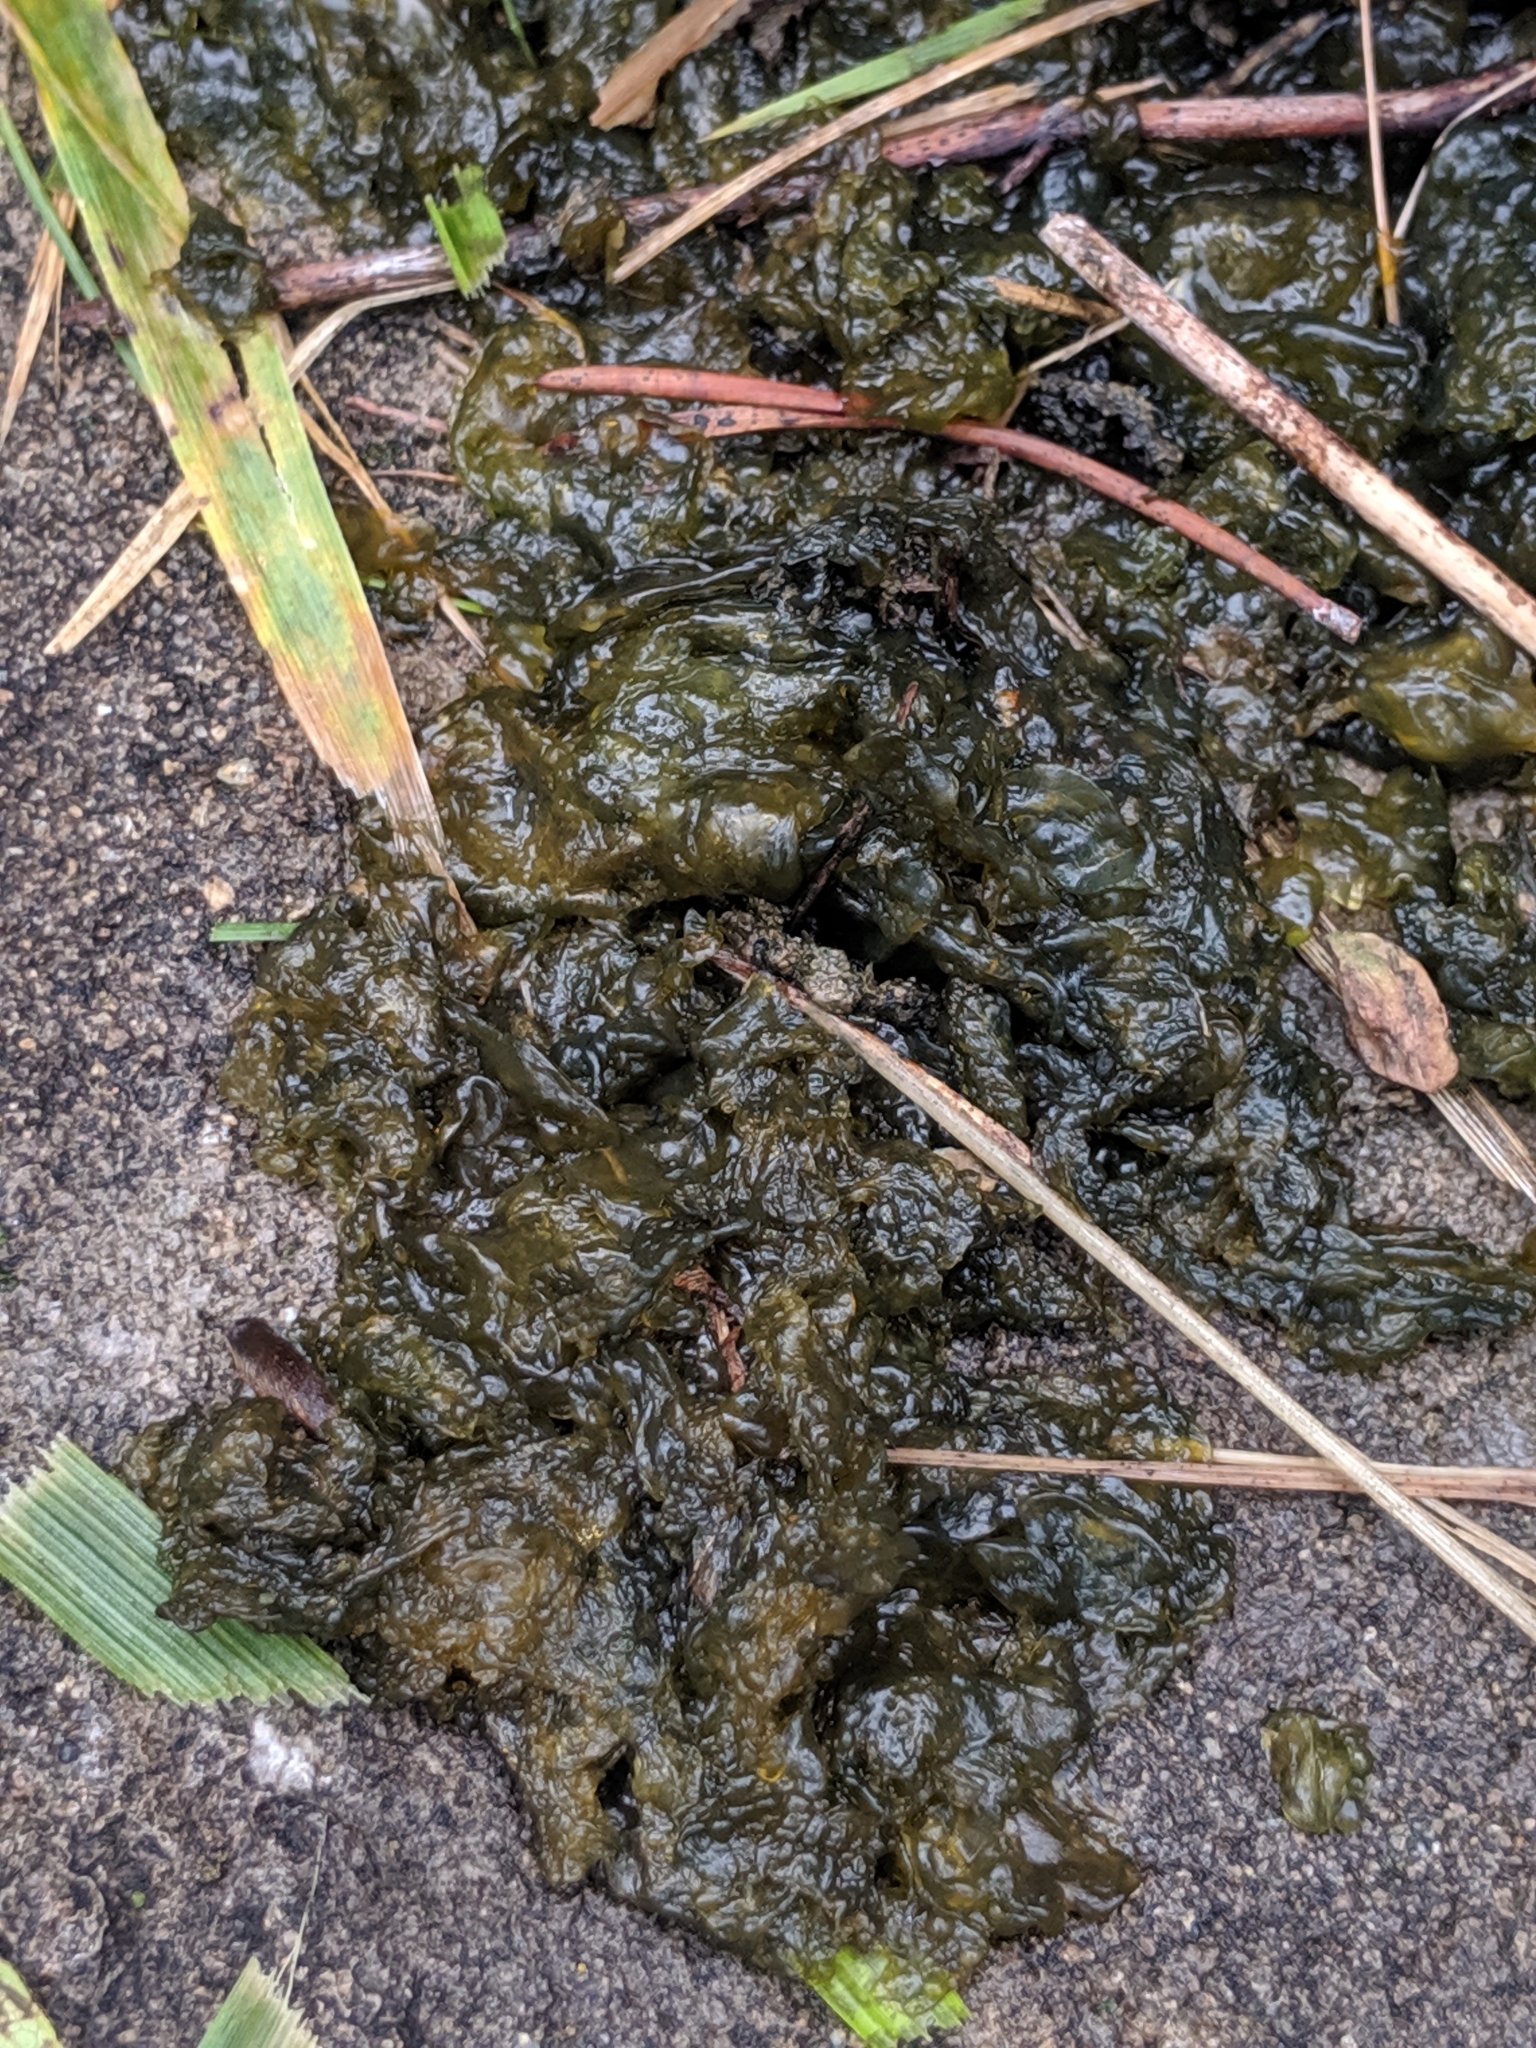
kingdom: Bacteria
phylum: Cyanobacteria
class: Cyanobacteriia
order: Cyanobacteriales
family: Nostocaceae
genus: Nostoc
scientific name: Nostoc commune
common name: Star jelly
